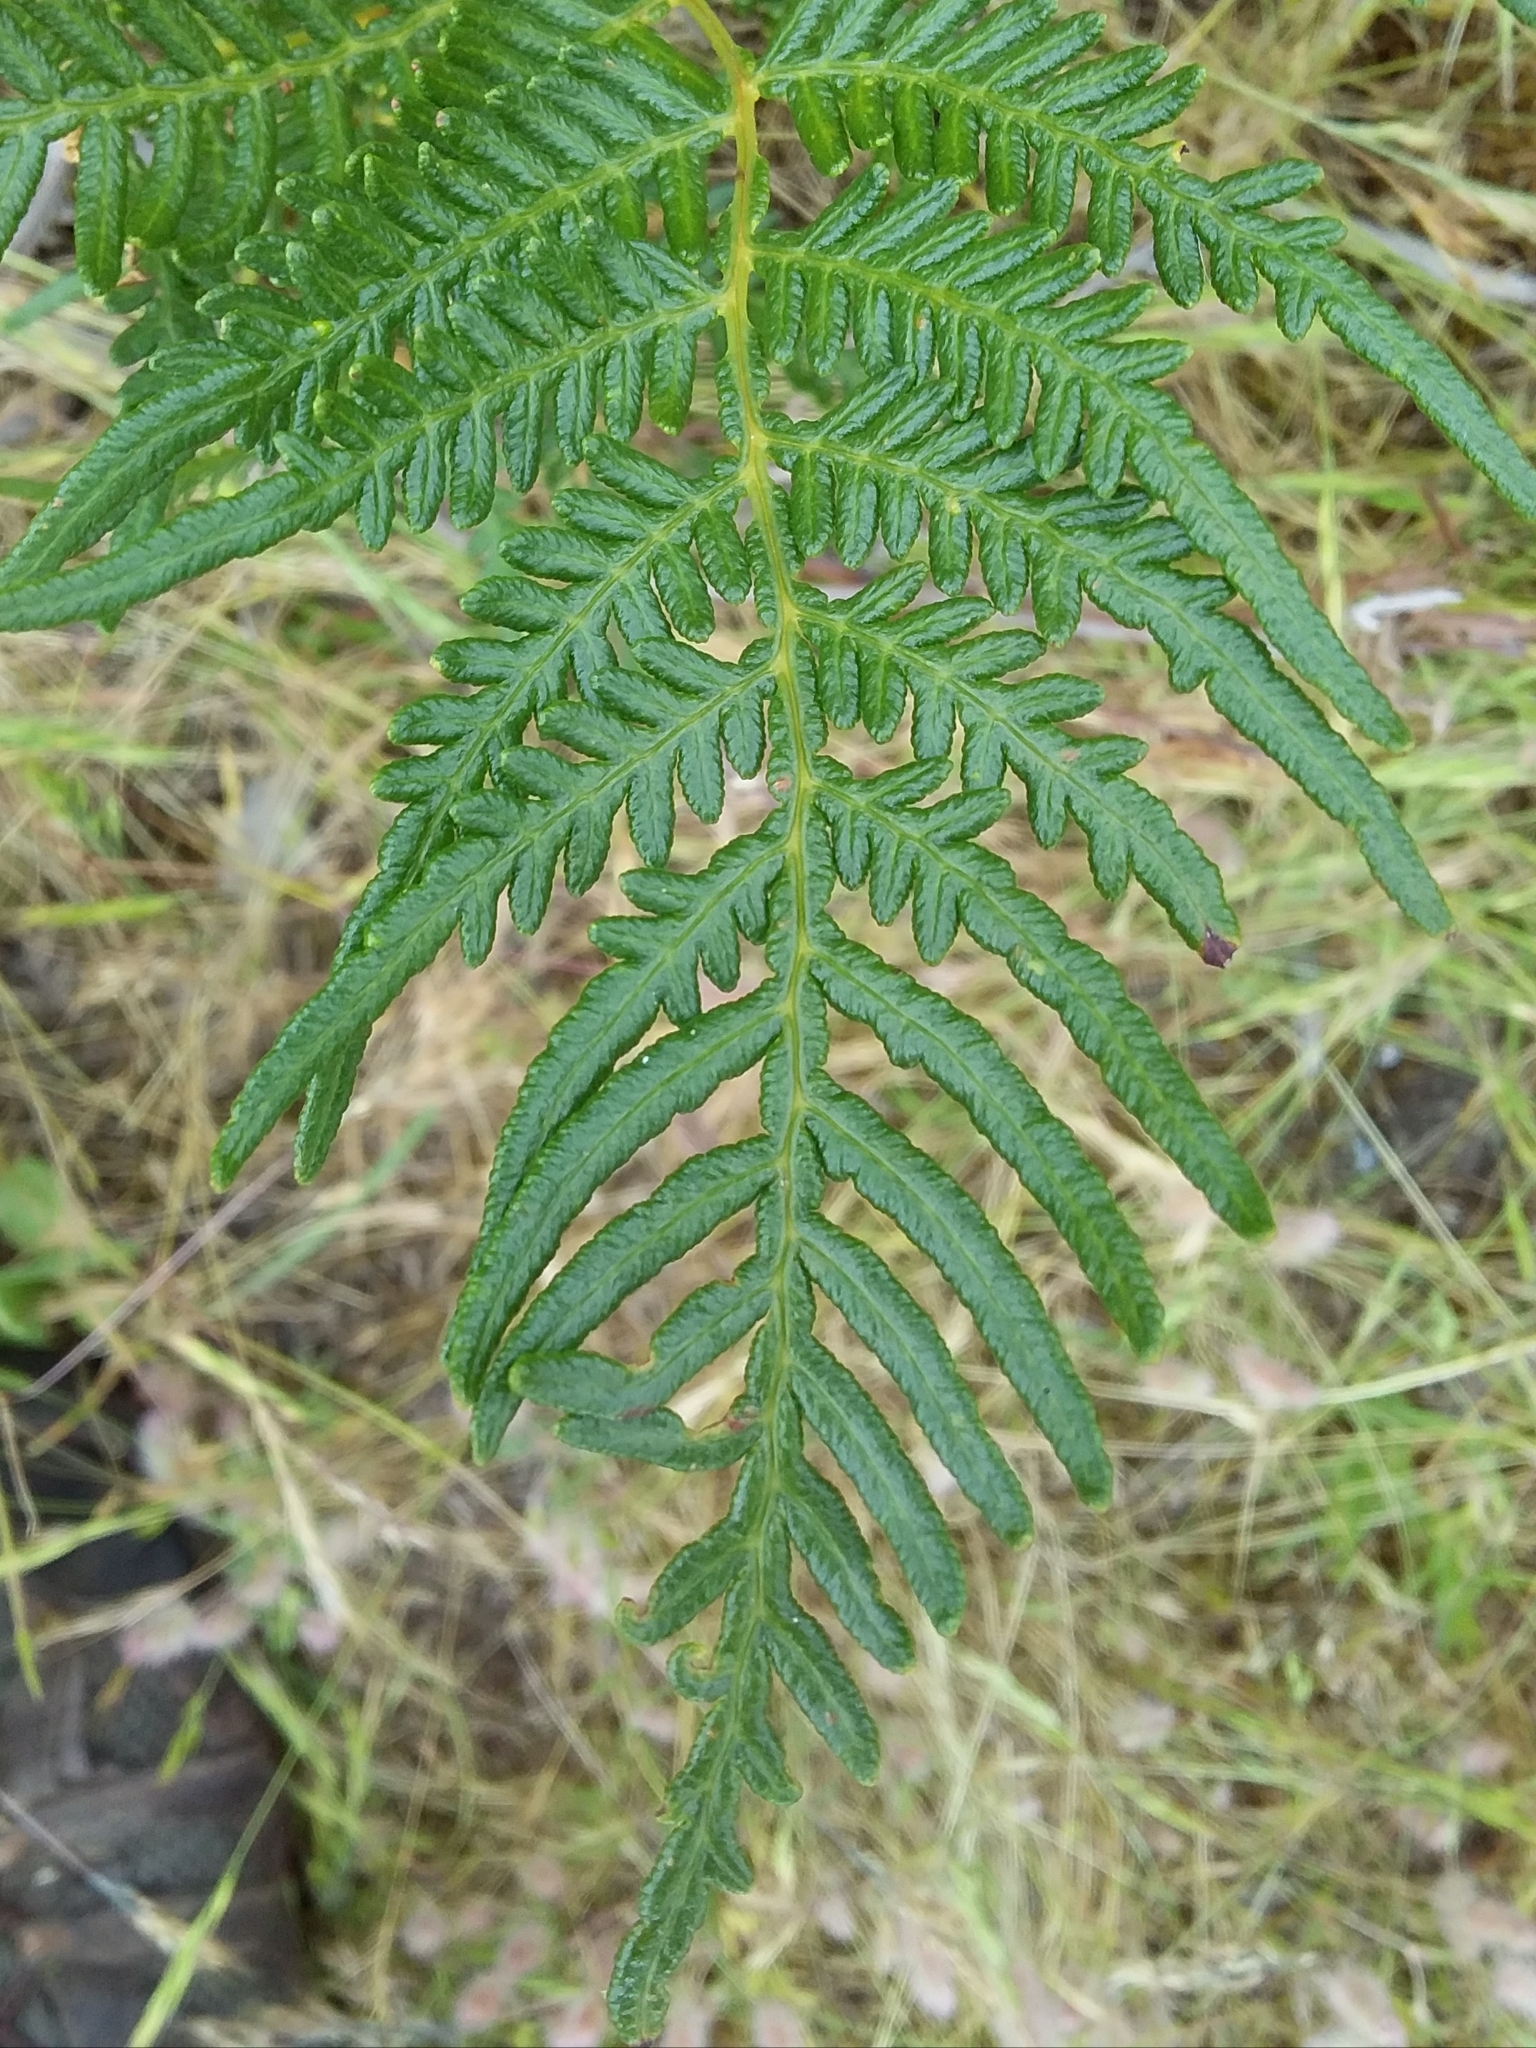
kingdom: Plantae
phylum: Tracheophyta
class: Polypodiopsida
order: Polypodiales
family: Dennstaedtiaceae
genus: Pteridium
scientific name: Pteridium esculentum
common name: Bracken fern
